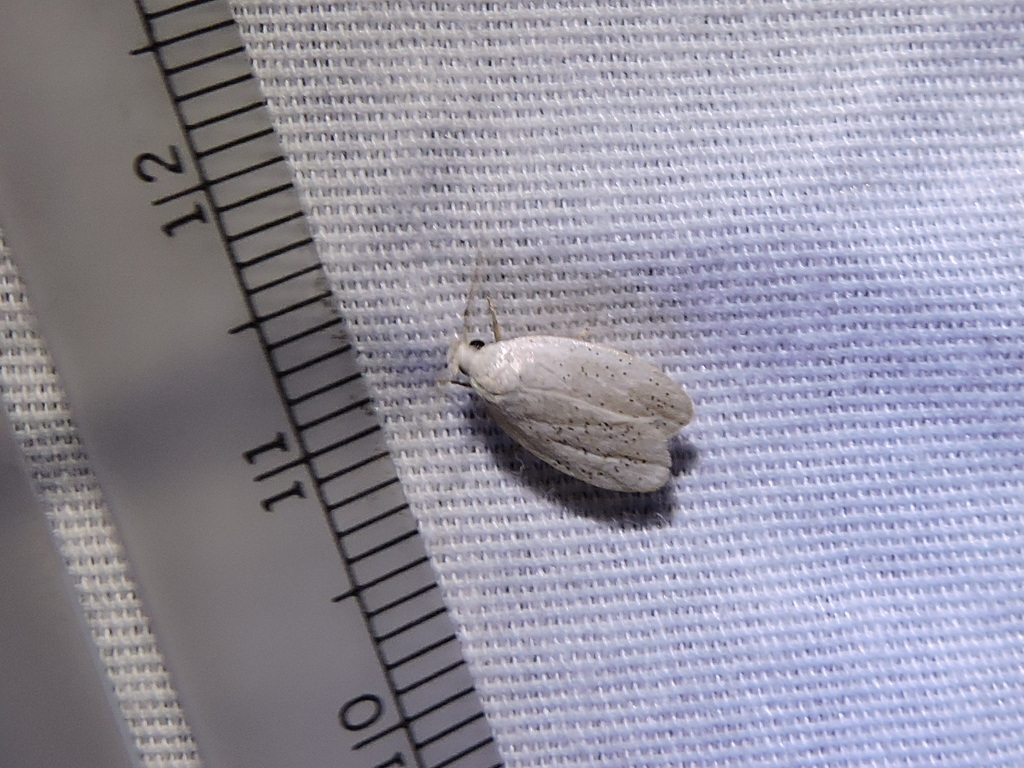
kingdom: Animalia
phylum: Arthropoda
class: Insecta
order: Lepidoptera
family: Peleopodidae
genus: Durrantia
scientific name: Durrantia piperatella
